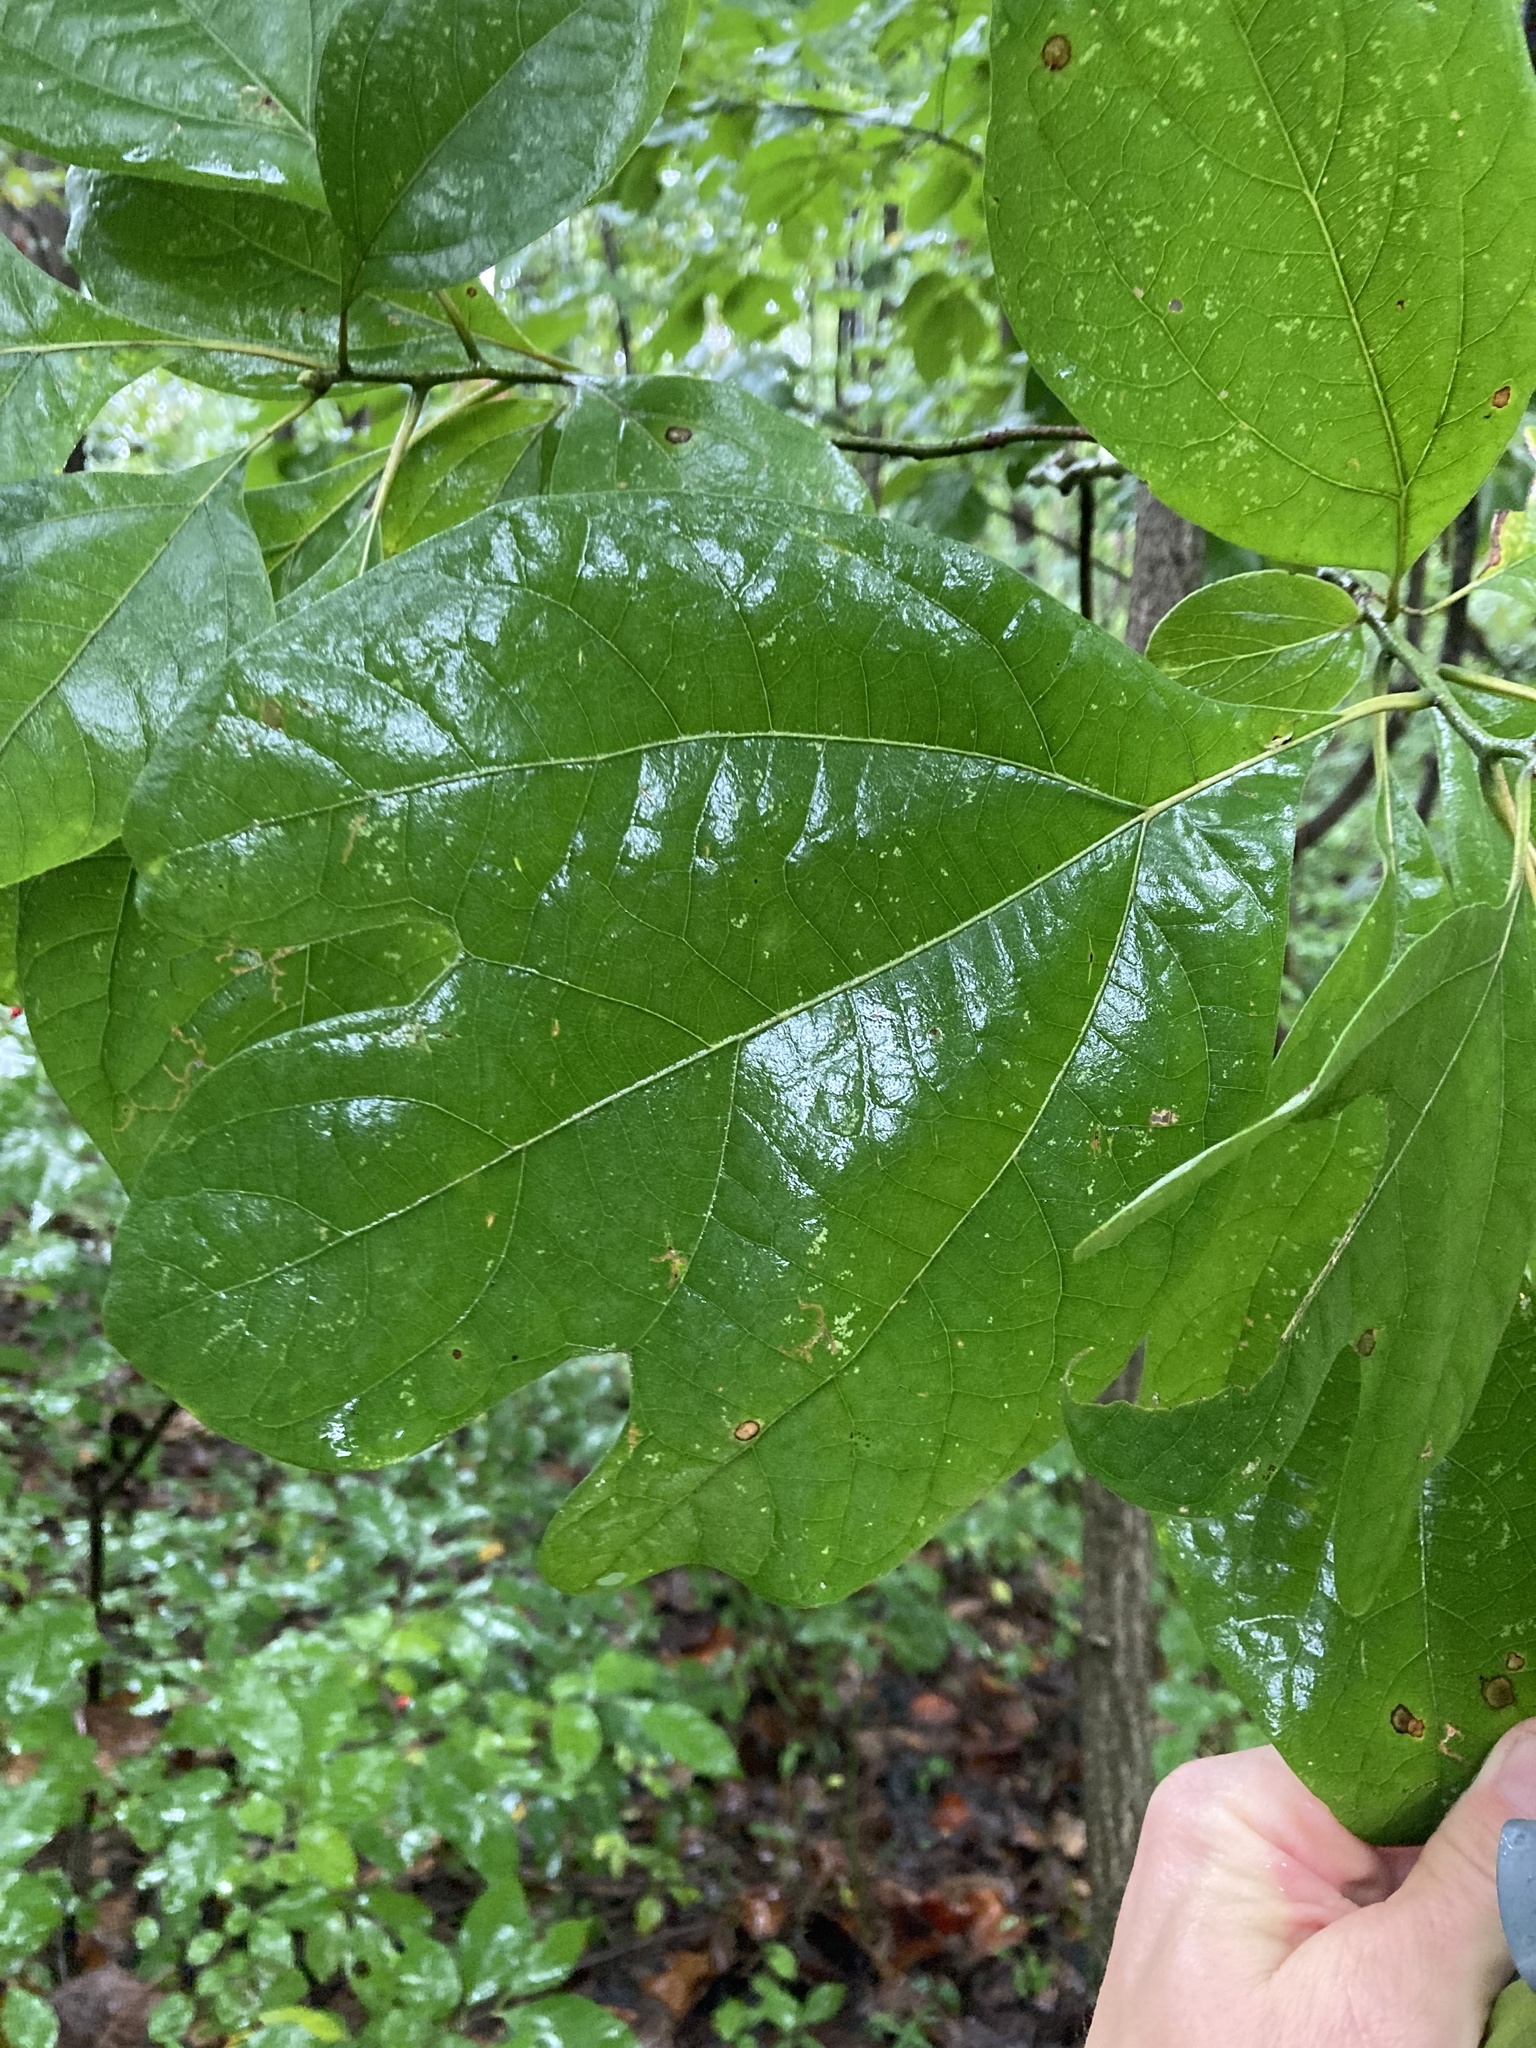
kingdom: Plantae
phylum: Tracheophyta
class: Magnoliopsida
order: Laurales
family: Lauraceae
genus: Sassafras
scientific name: Sassafras albidum
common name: Sassafras
